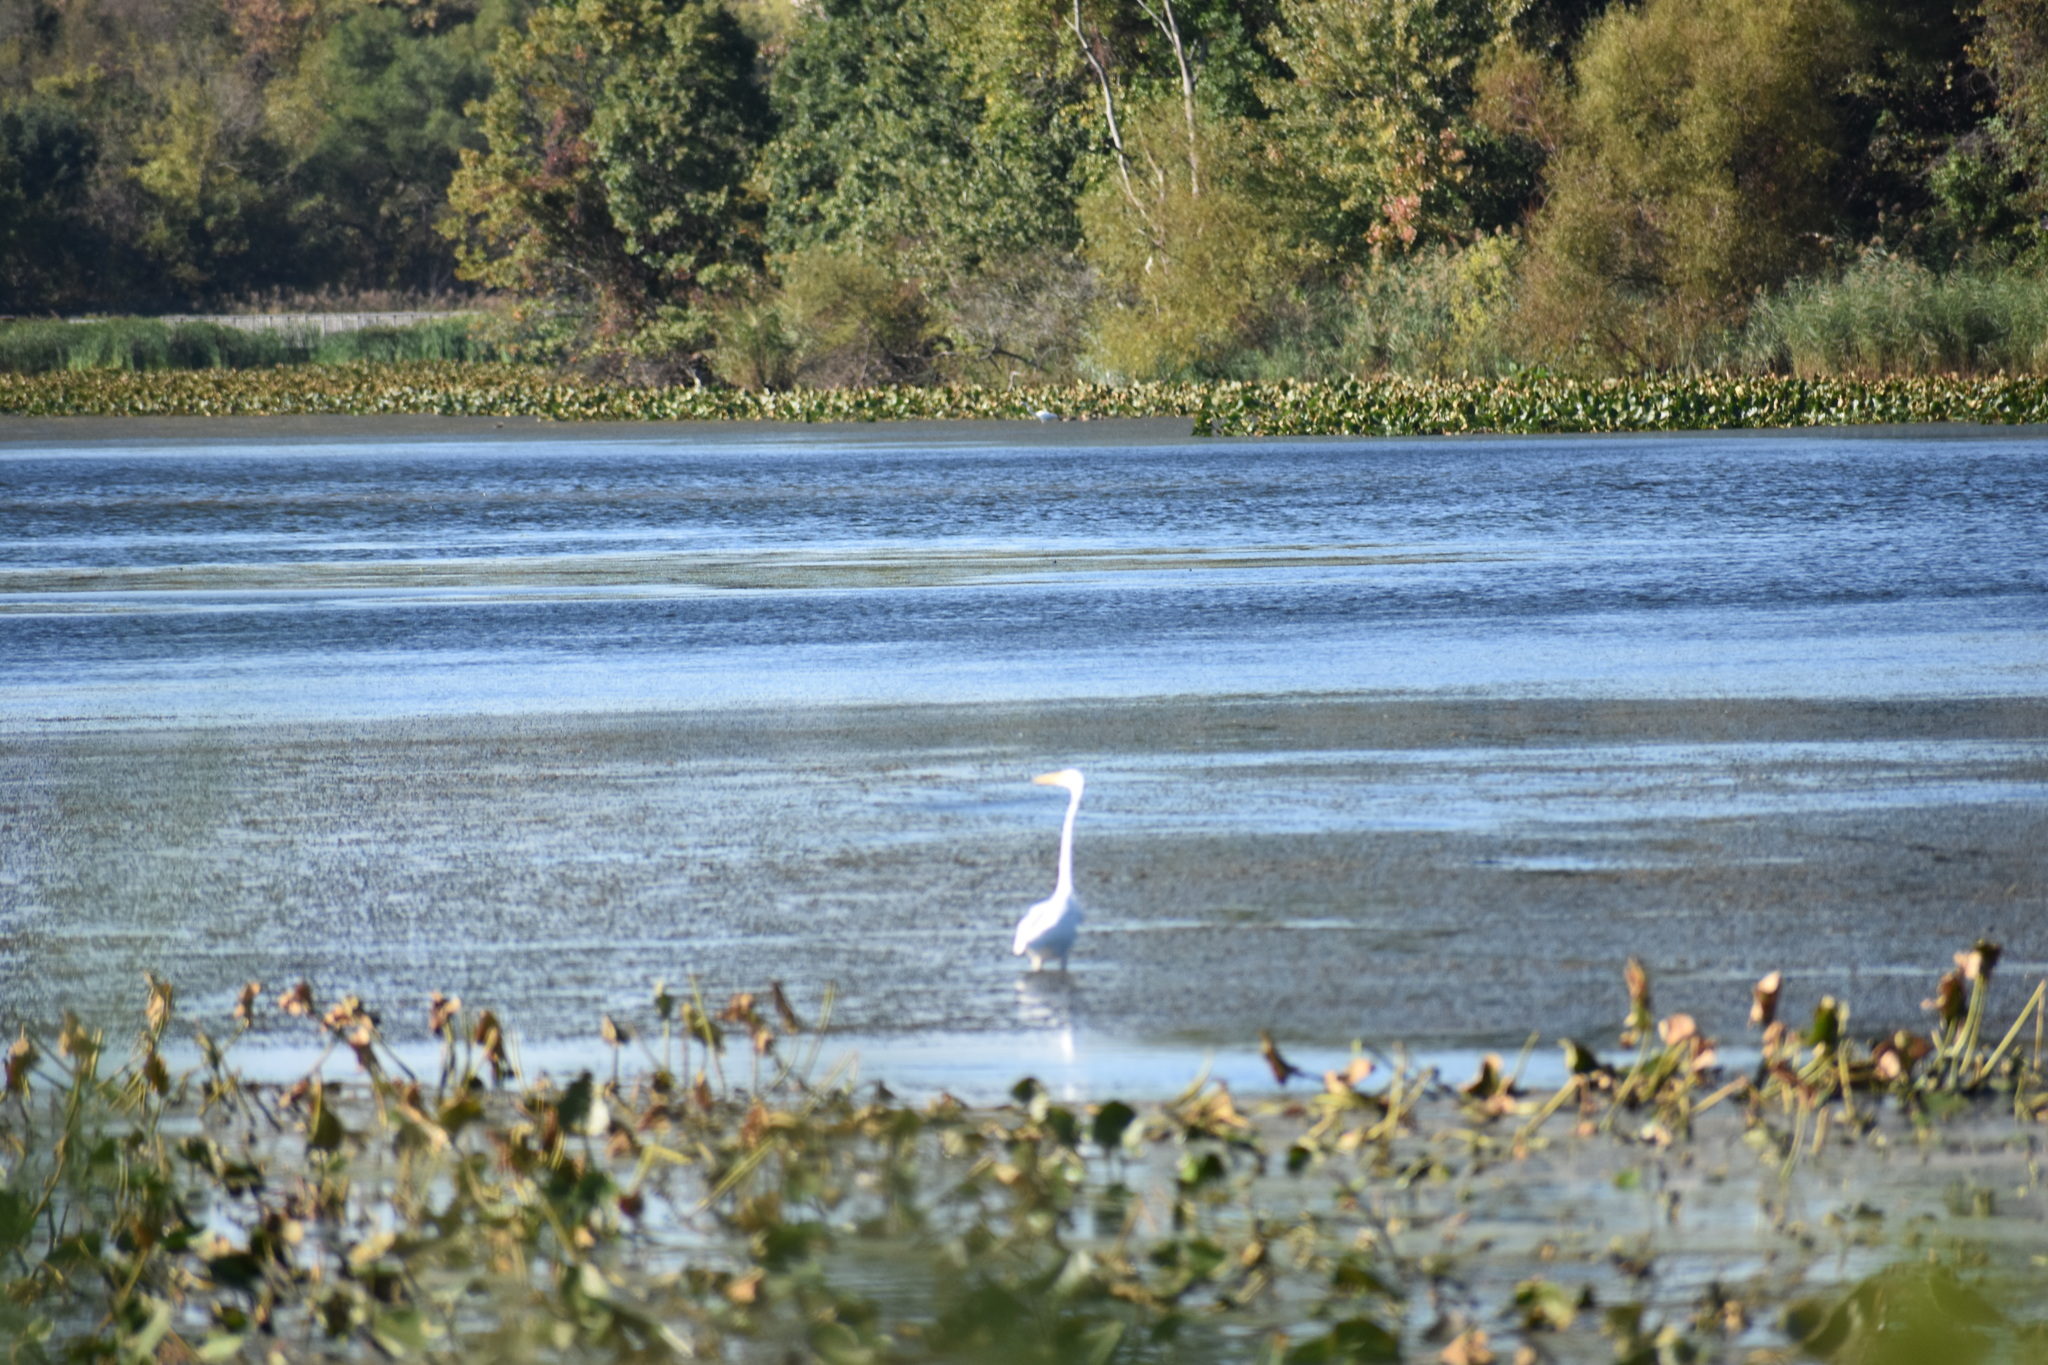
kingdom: Animalia
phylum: Chordata
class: Aves
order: Pelecaniformes
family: Ardeidae
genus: Ardea
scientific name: Ardea alba
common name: Great egret
